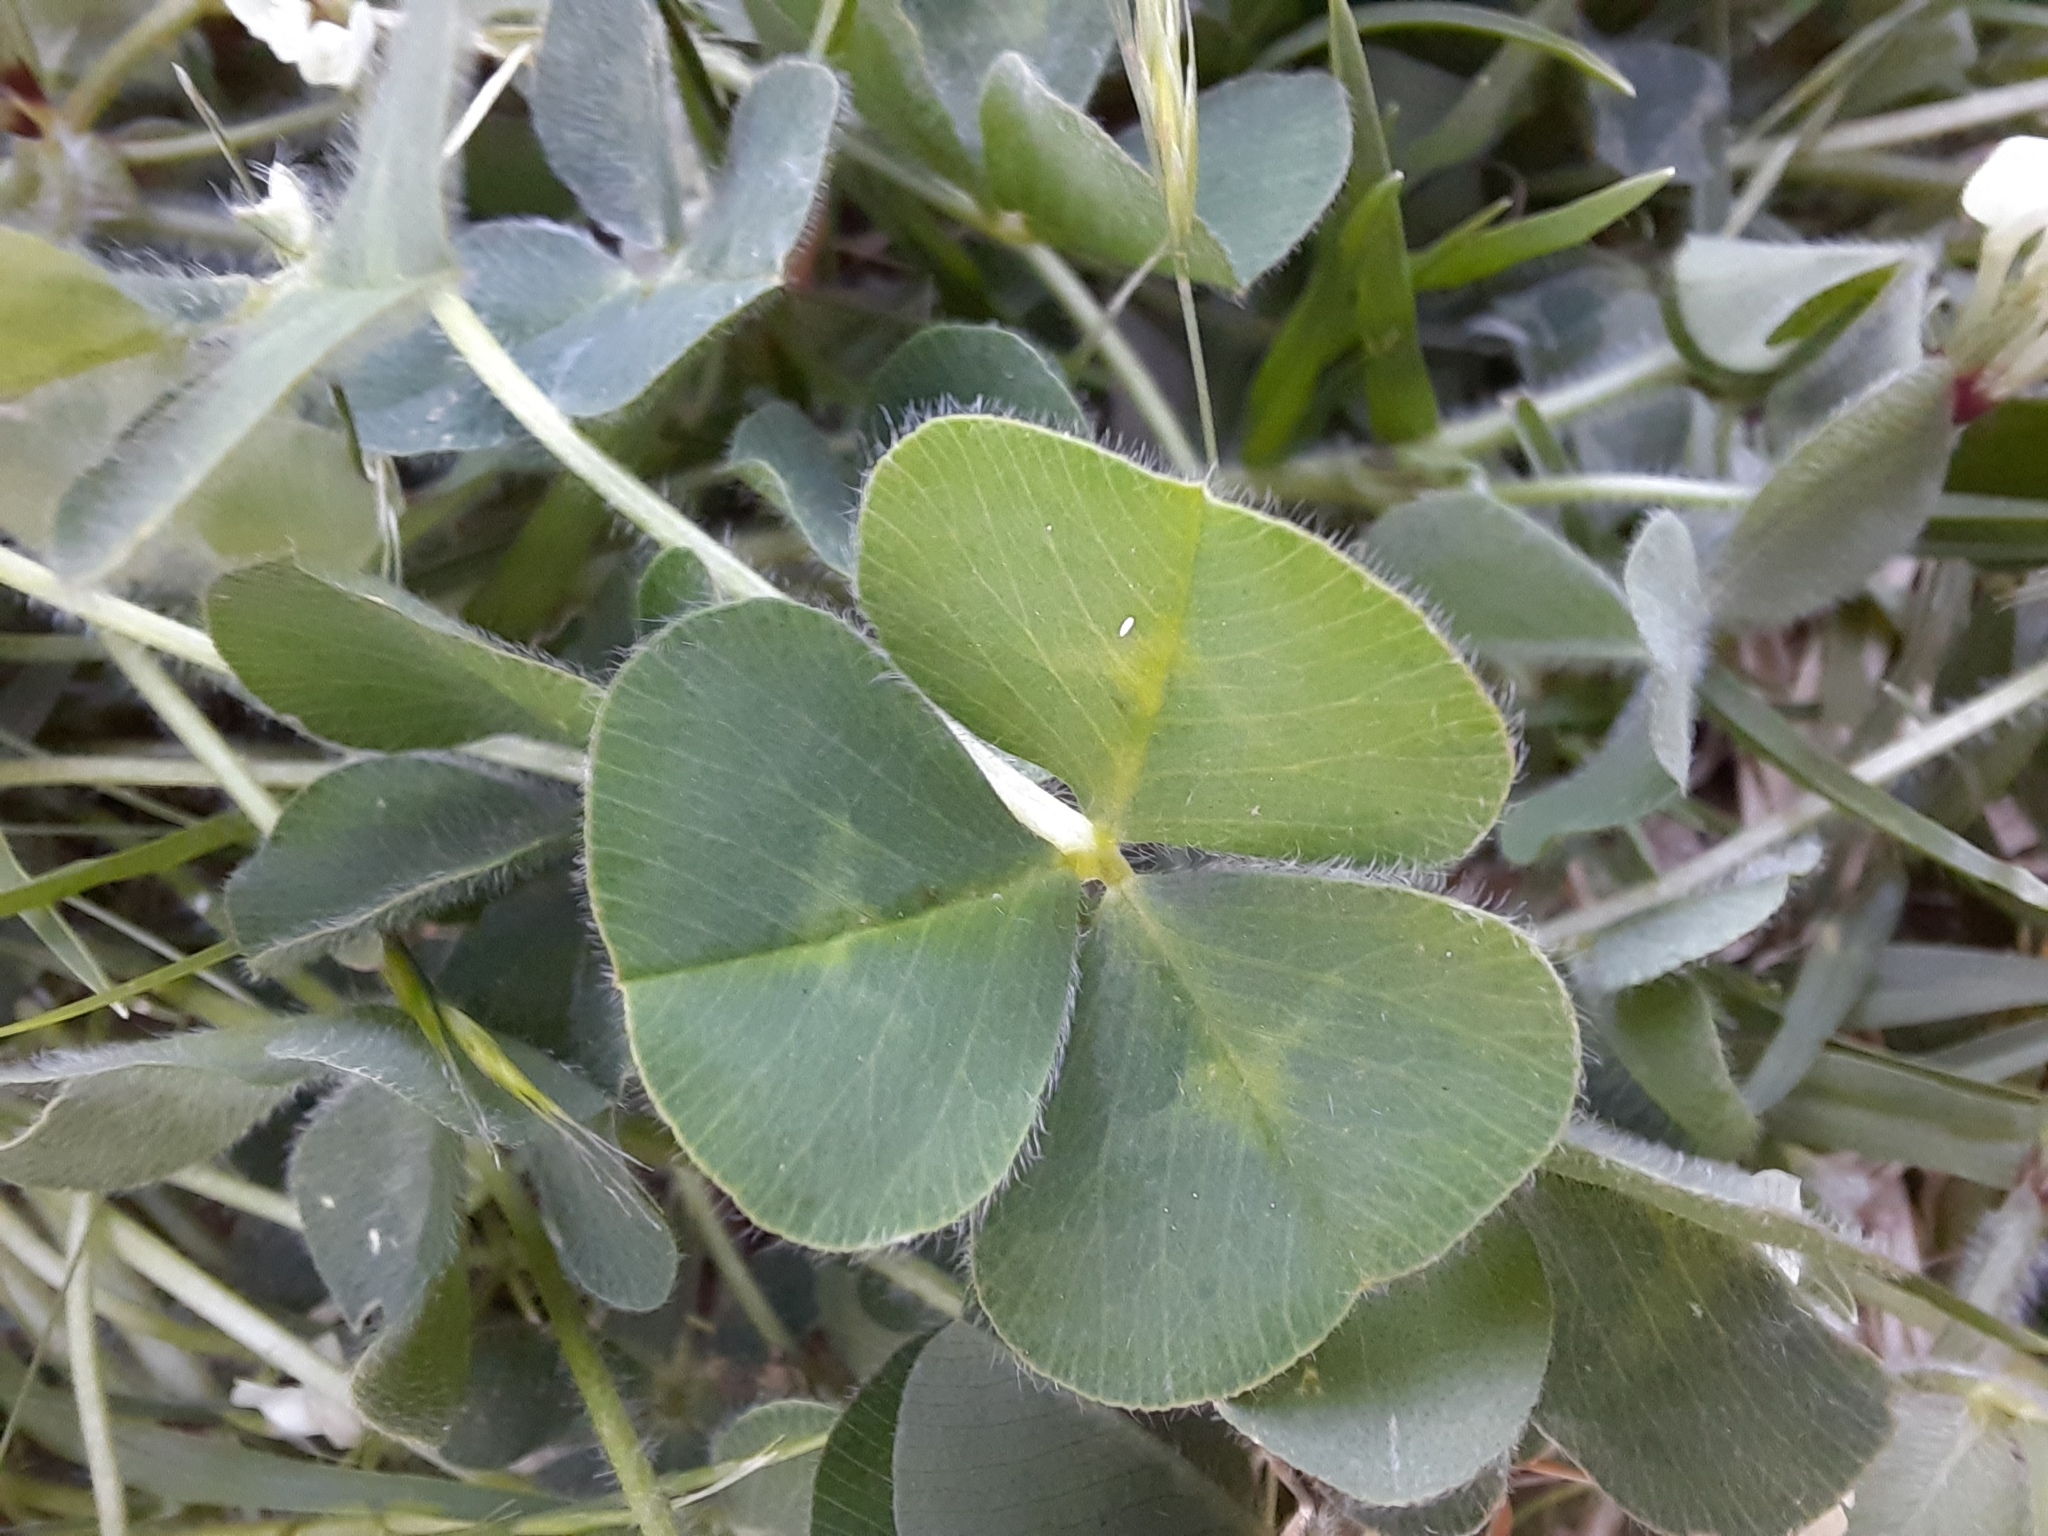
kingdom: Plantae
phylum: Tracheophyta
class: Magnoliopsida
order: Fabales
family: Fabaceae
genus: Trifolium
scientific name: Trifolium subterraneum
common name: Subterranean clover
